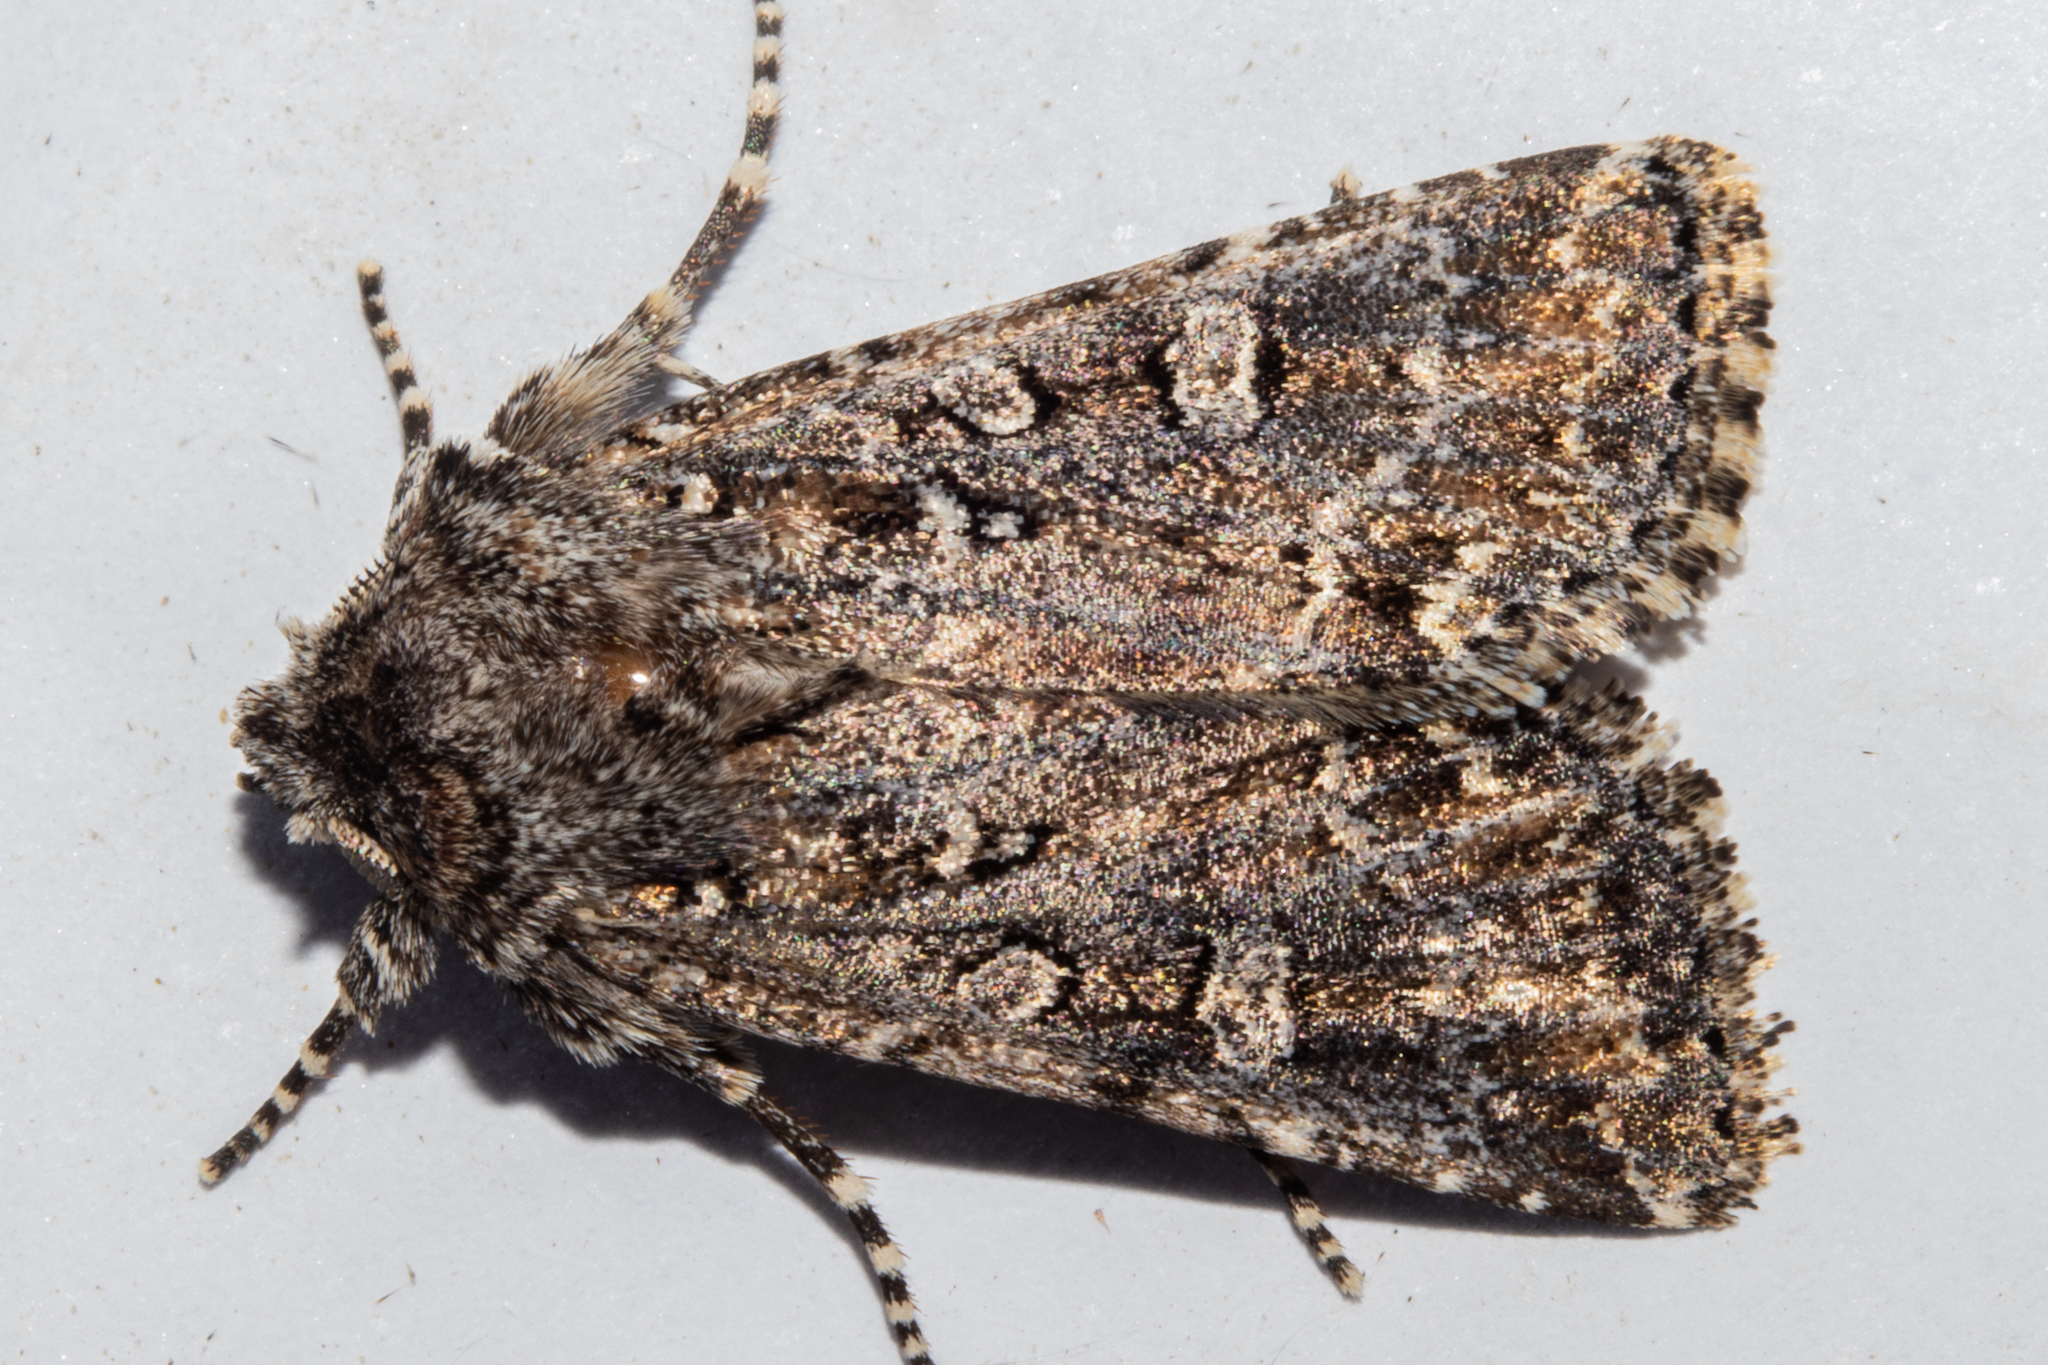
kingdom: Animalia
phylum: Arthropoda
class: Insecta
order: Lepidoptera
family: Noctuidae
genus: Ichneutica
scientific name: Ichneutica lithias
